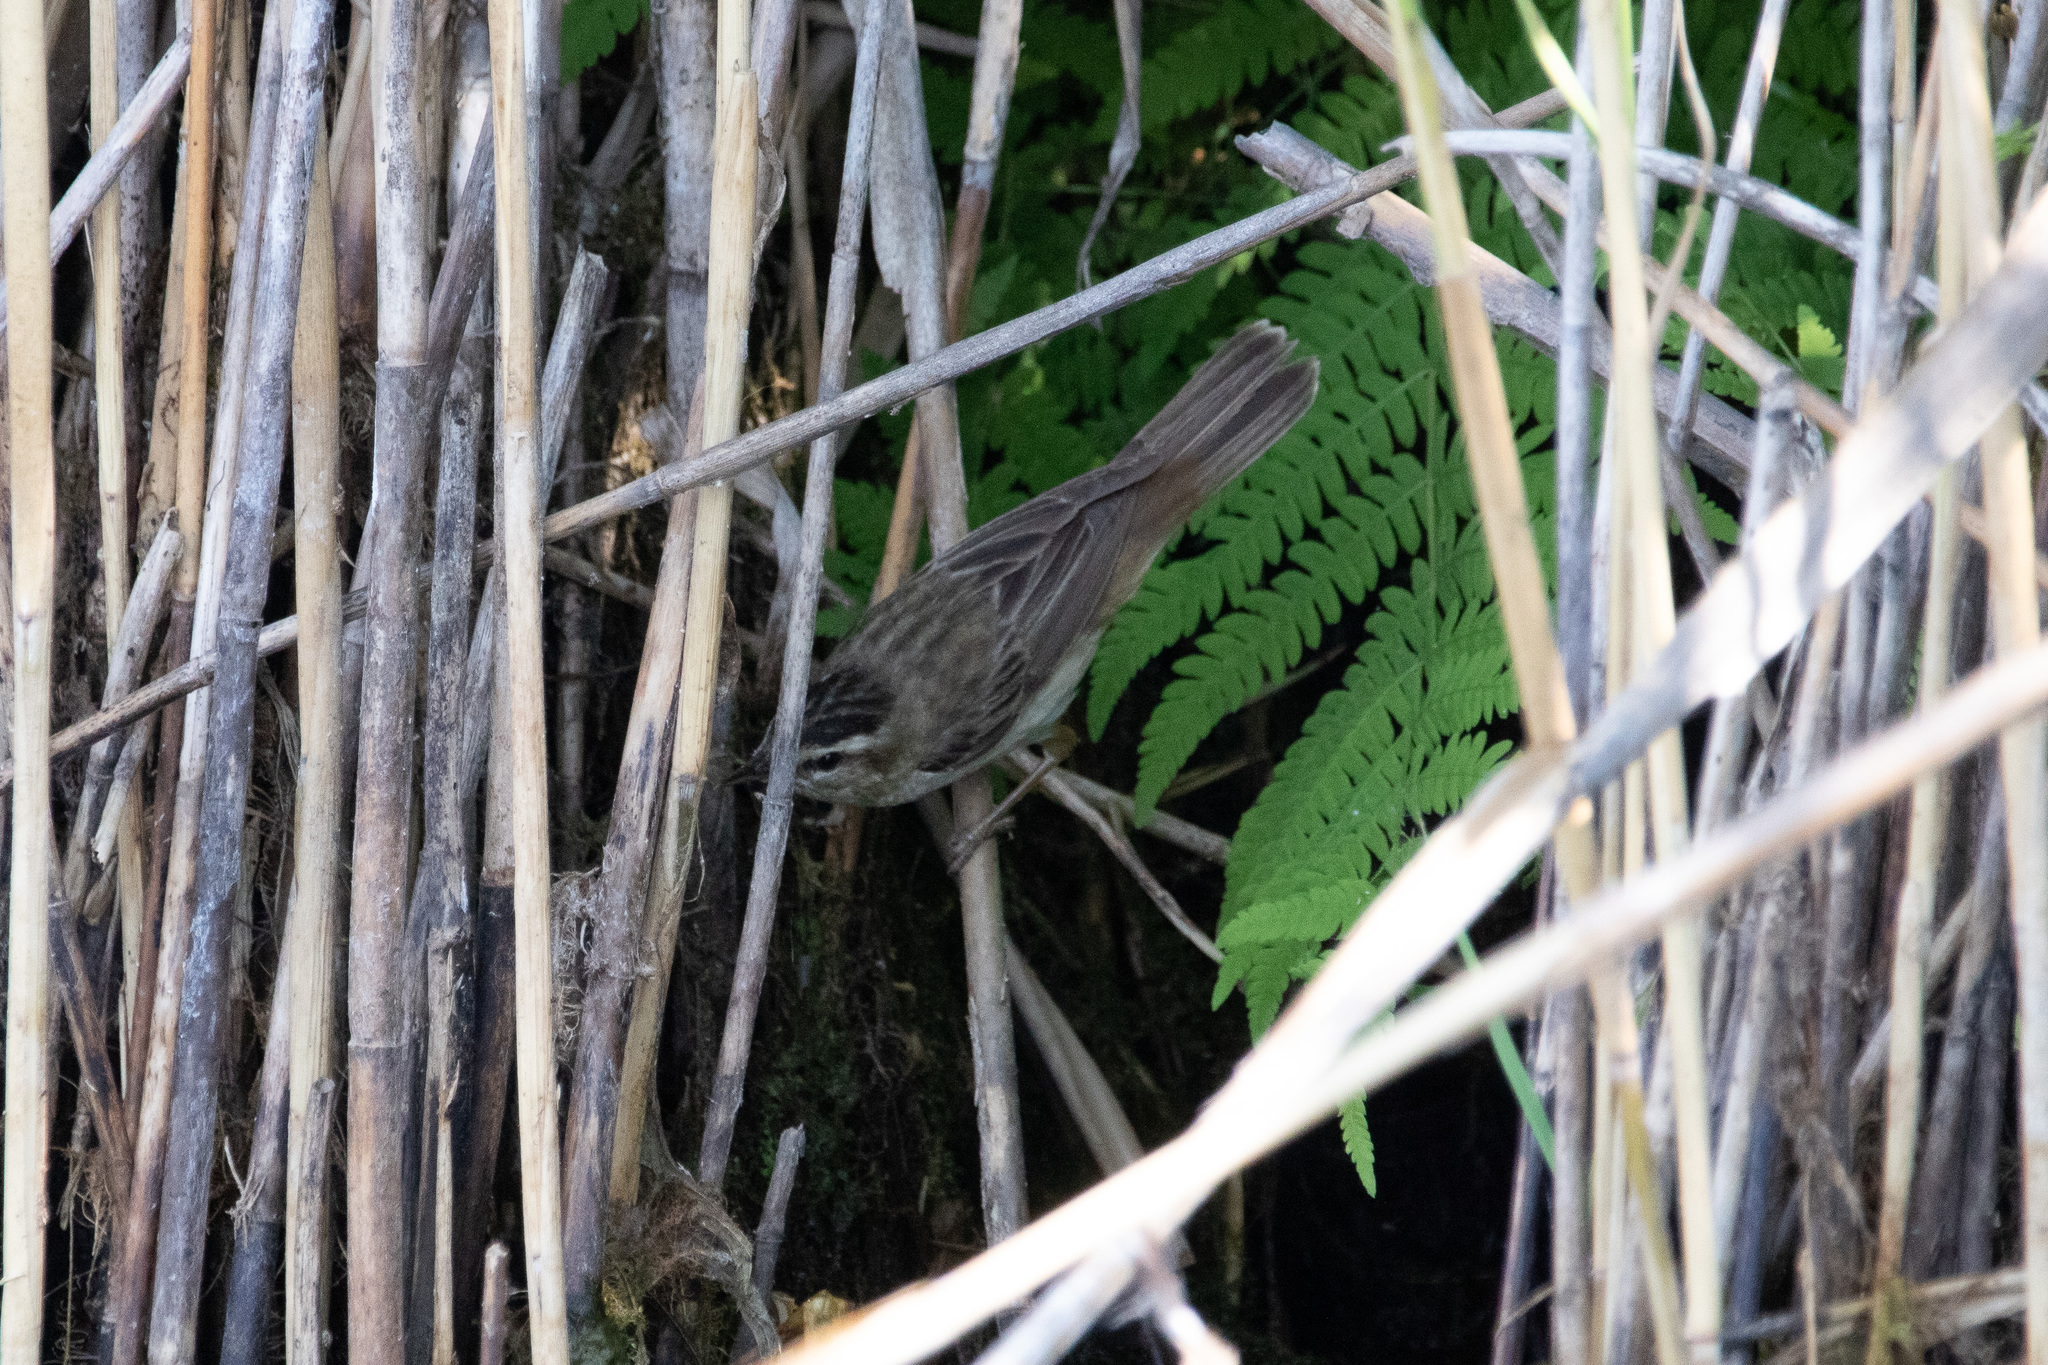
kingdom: Animalia
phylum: Chordata
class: Aves
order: Passeriformes
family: Acrocephalidae
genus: Acrocephalus
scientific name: Acrocephalus schoenobaenus
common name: Sedge warbler
